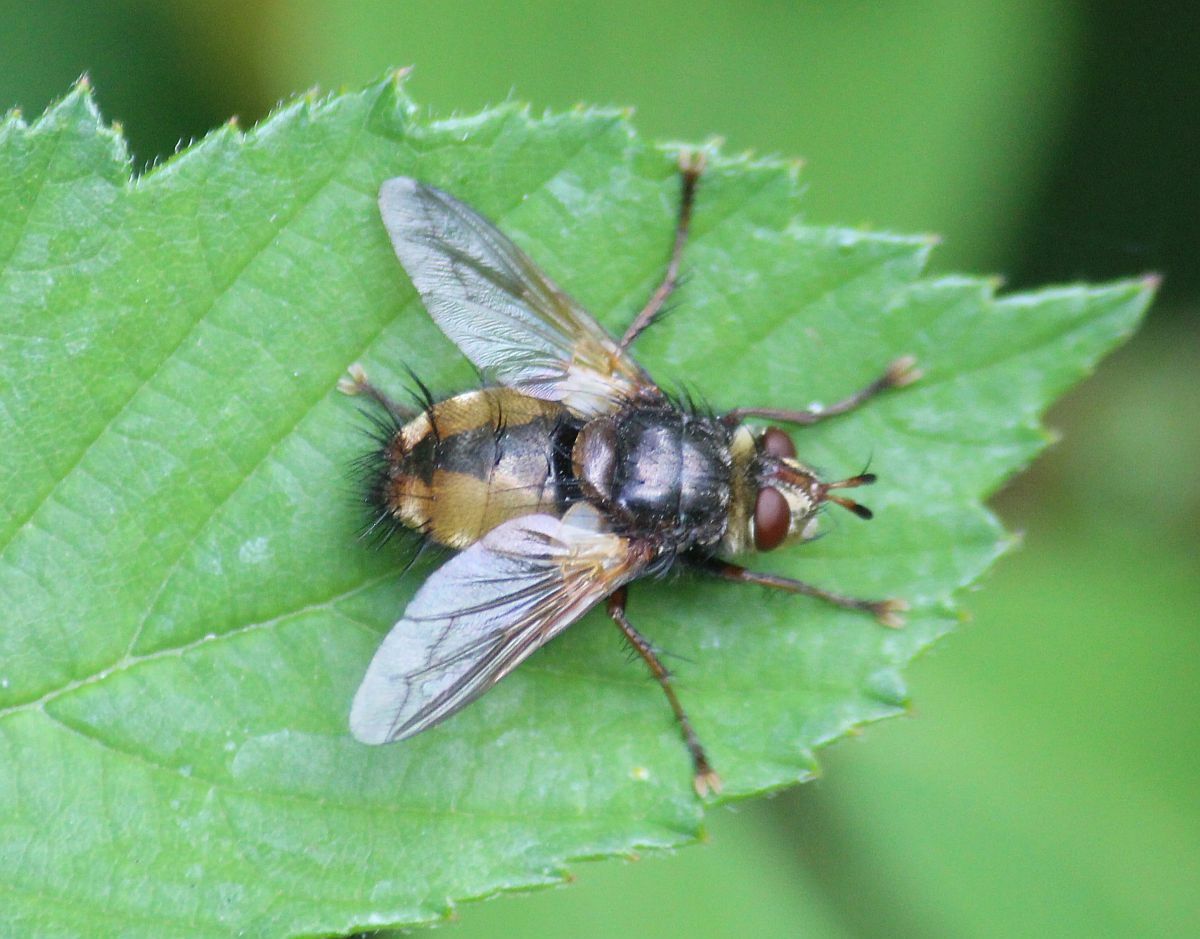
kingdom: Animalia
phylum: Arthropoda
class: Insecta
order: Diptera
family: Tachinidae
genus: Tachina
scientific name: Tachina fera
